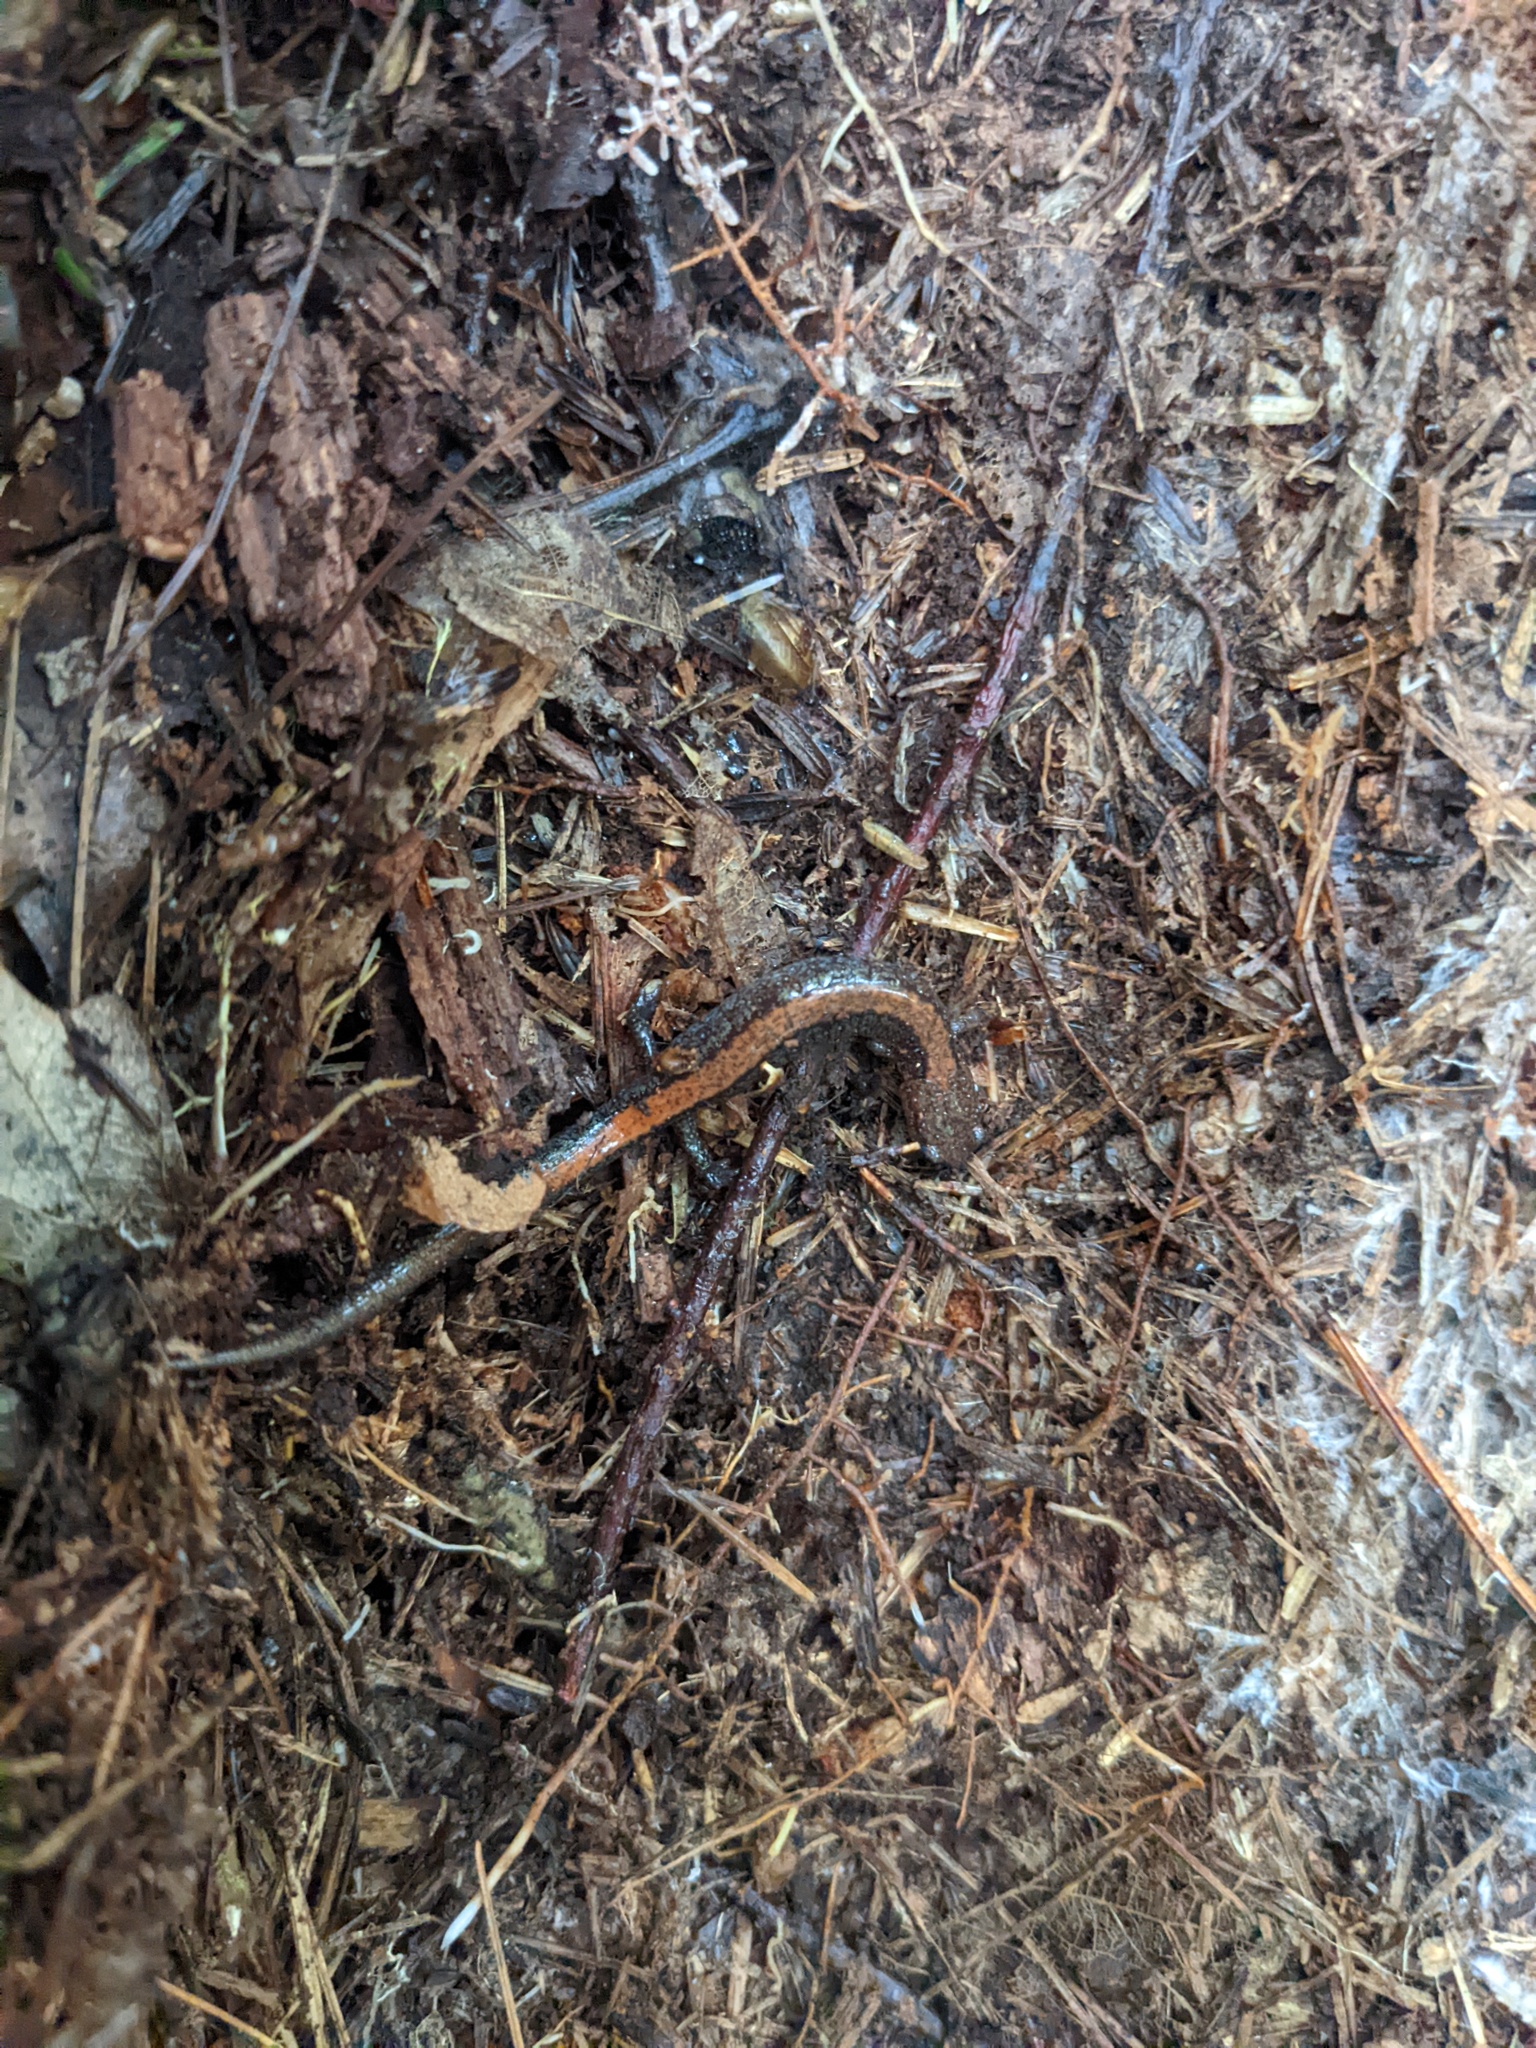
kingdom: Animalia
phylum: Chordata
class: Amphibia
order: Caudata
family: Plethodontidae
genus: Plethodon
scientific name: Plethodon cinereus
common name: Redback salamander
